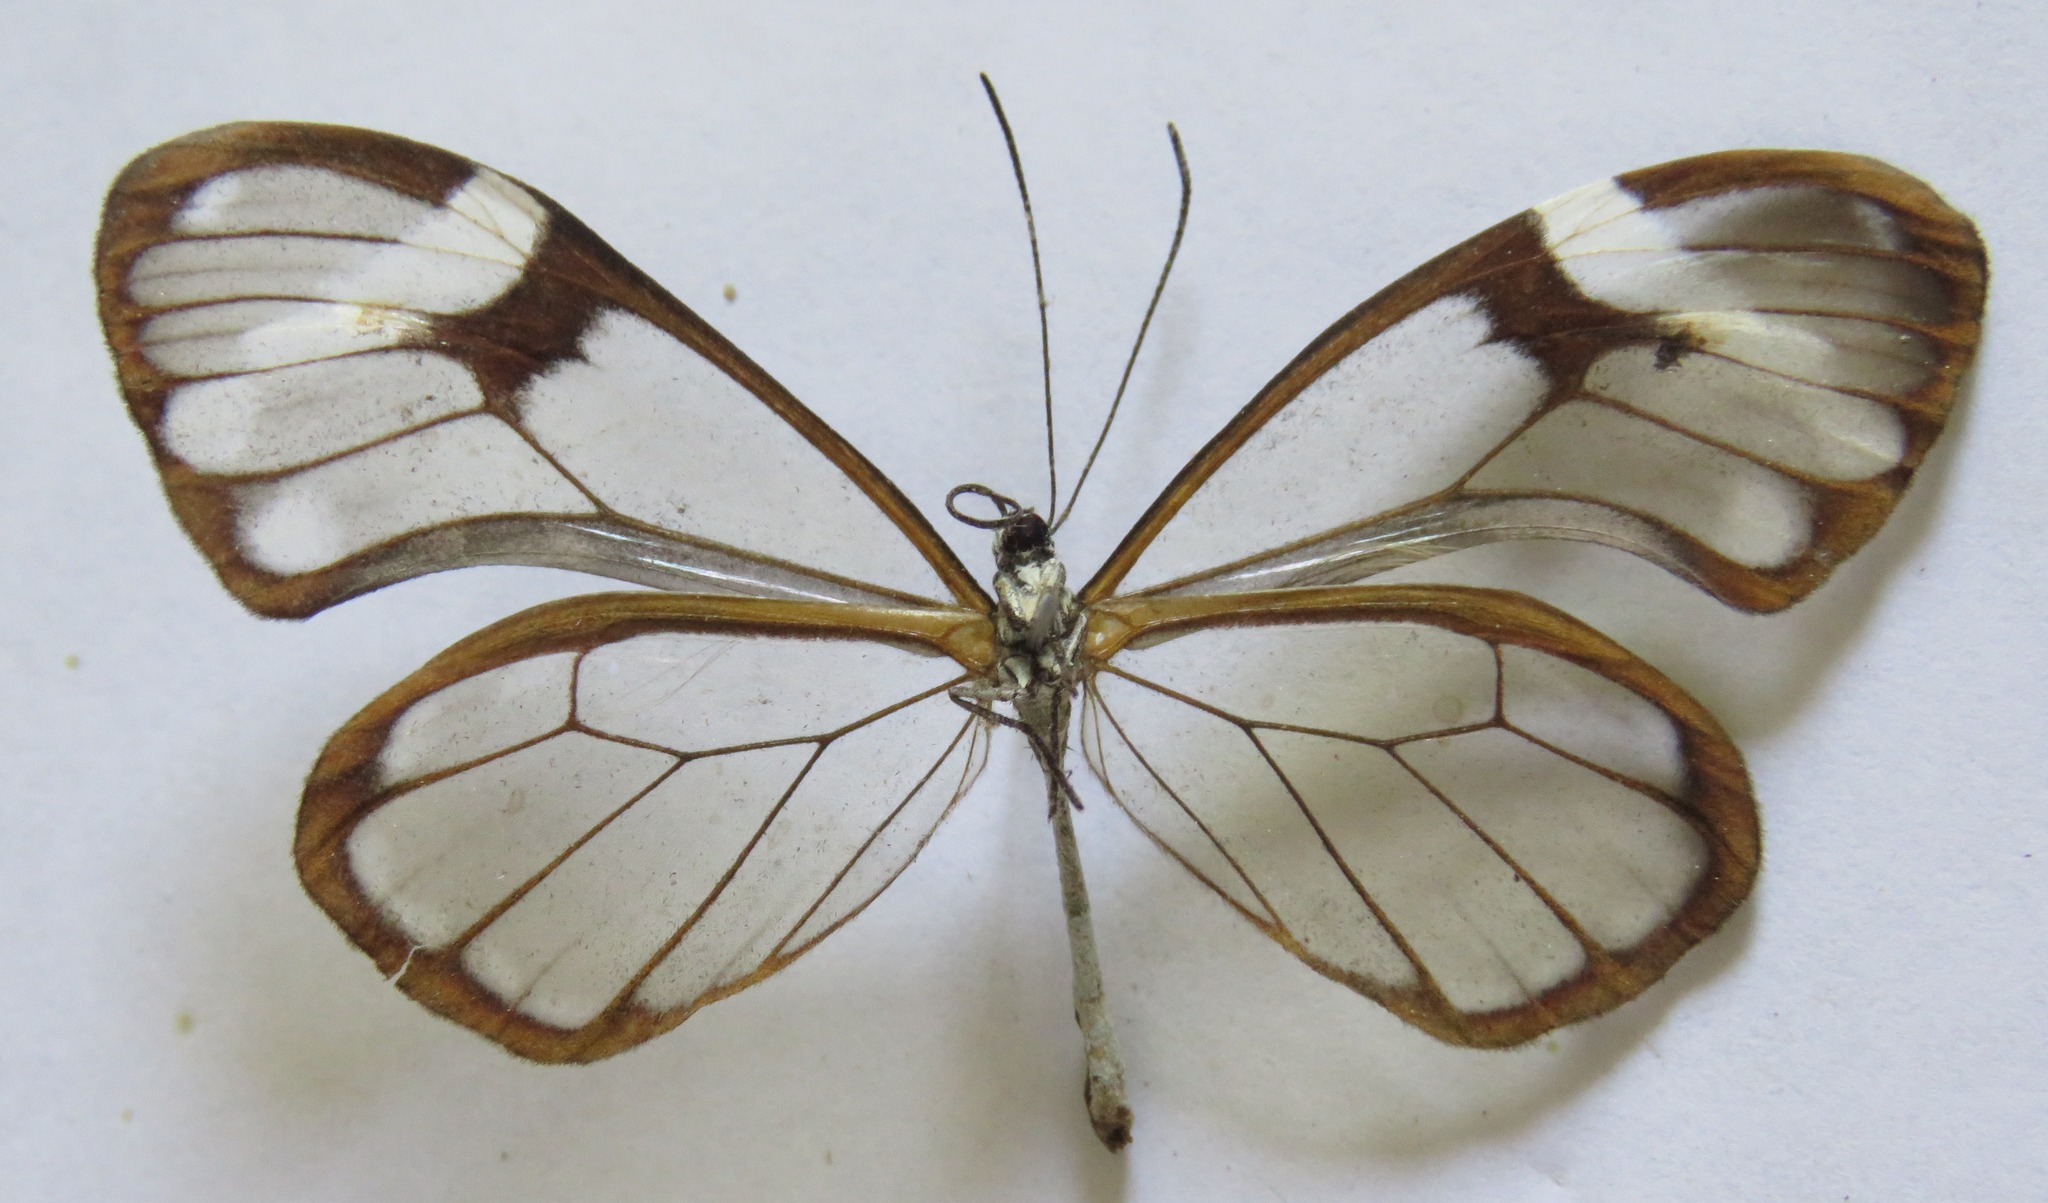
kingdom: Animalia
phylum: Arthropoda
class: Insecta
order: Lepidoptera
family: Nymphalidae
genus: Godyris
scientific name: Godyris nero
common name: Nero clearwing
